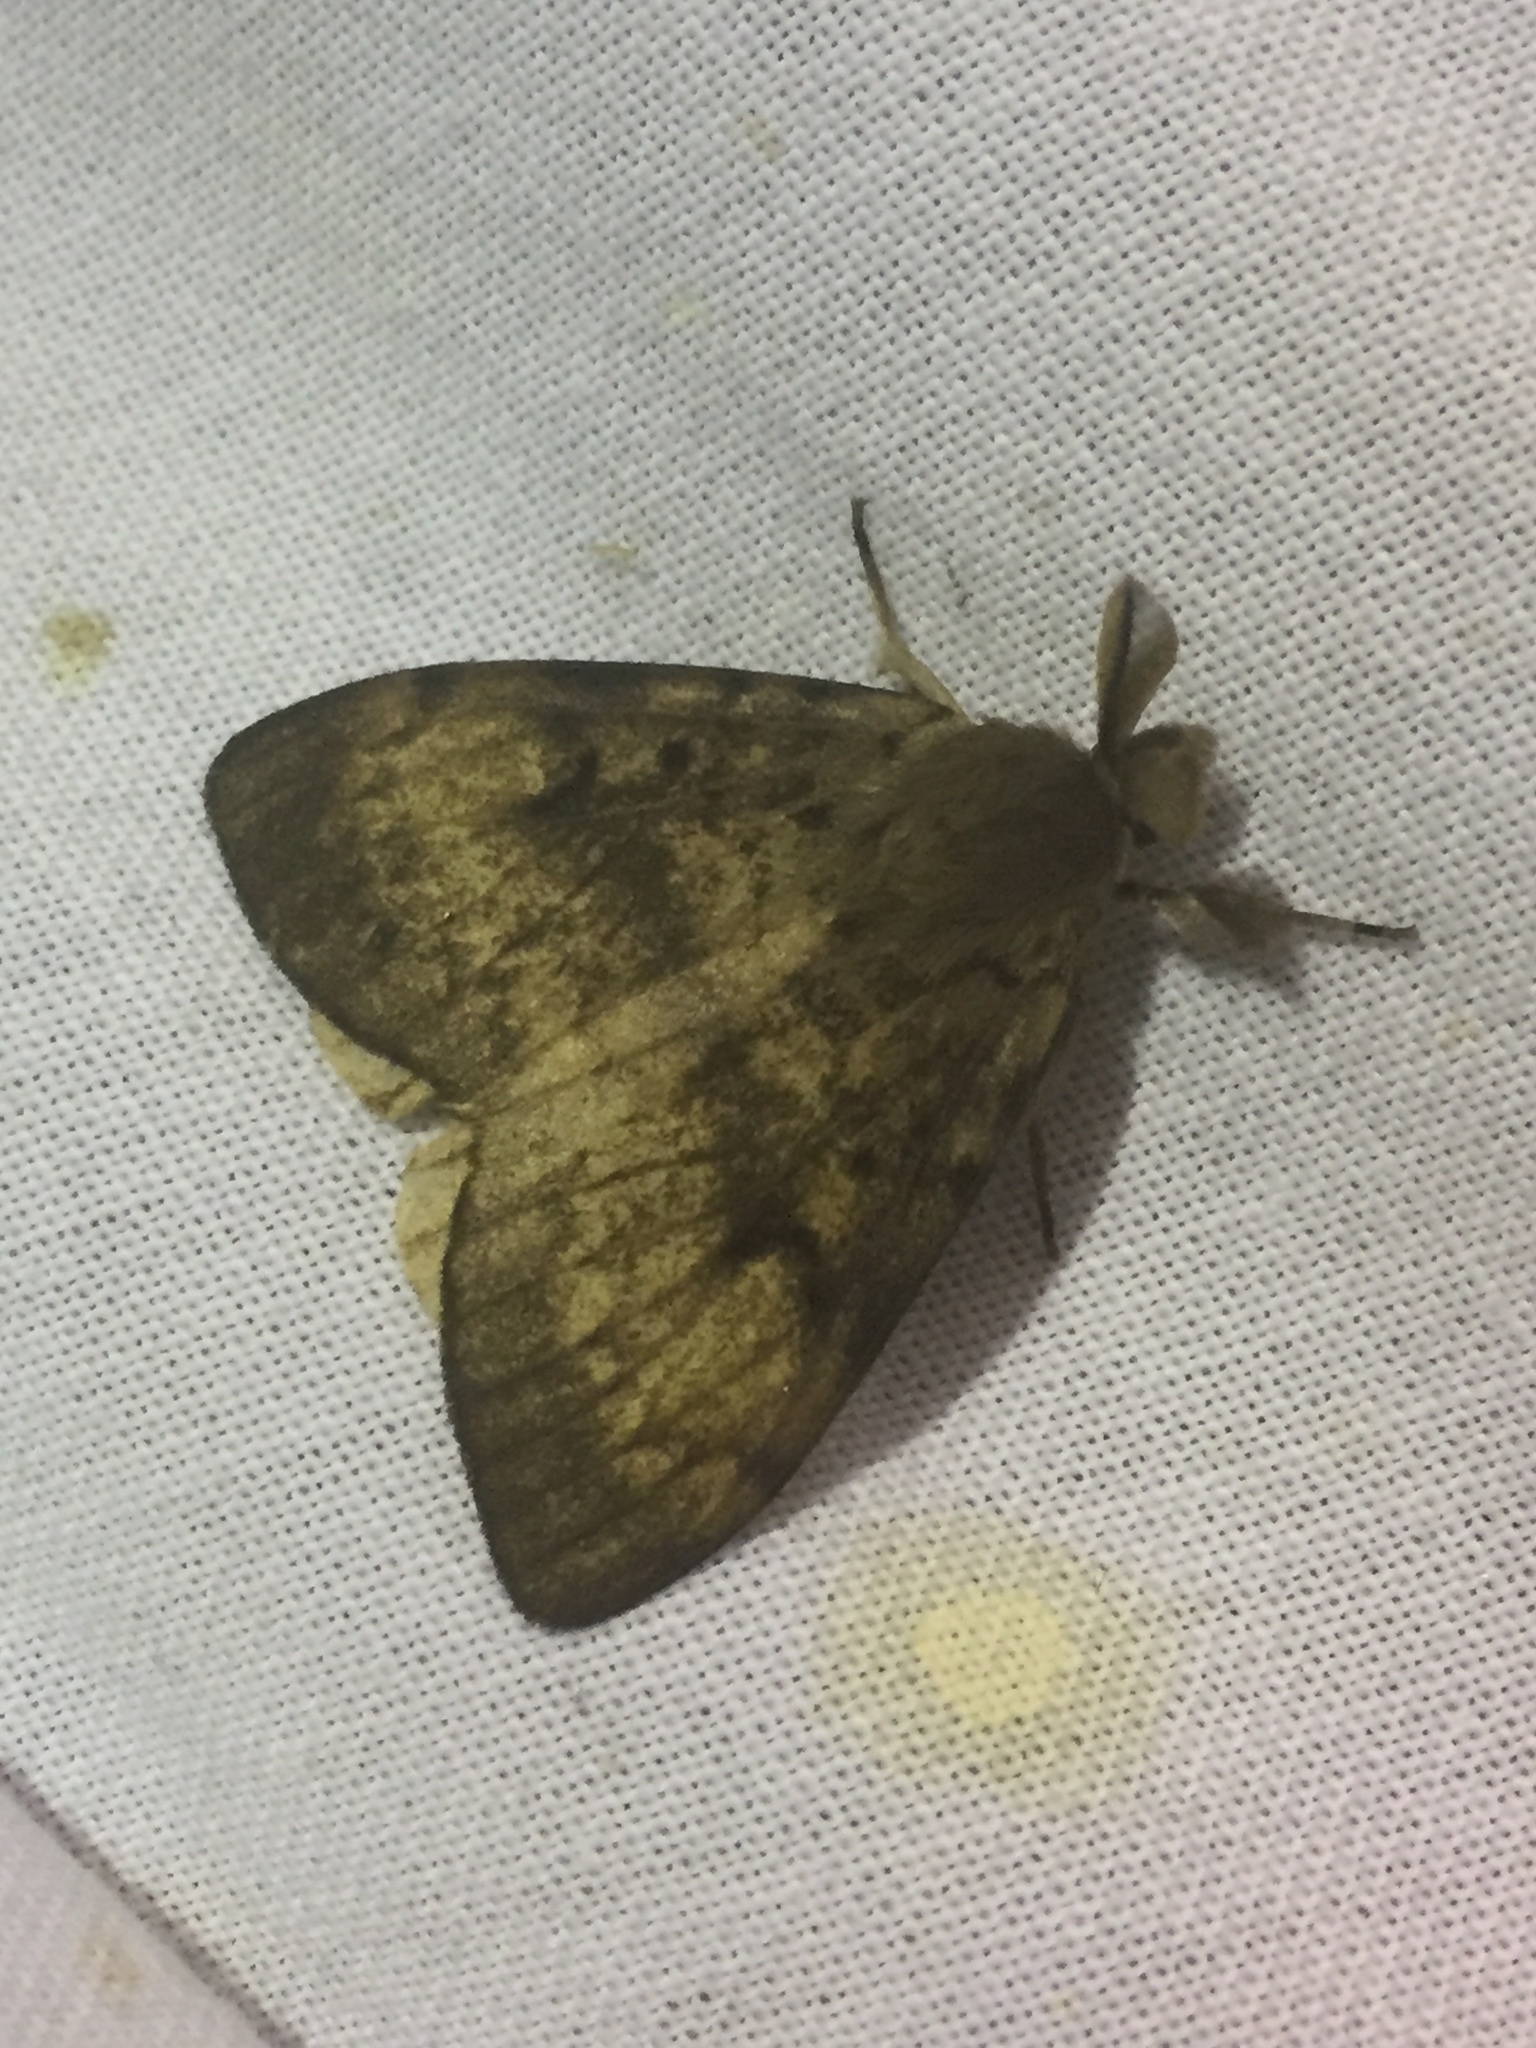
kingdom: Animalia
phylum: Arthropoda
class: Insecta
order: Lepidoptera
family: Erebidae
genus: Lymantria
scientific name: Lymantria dispar
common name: Gypsy moth
